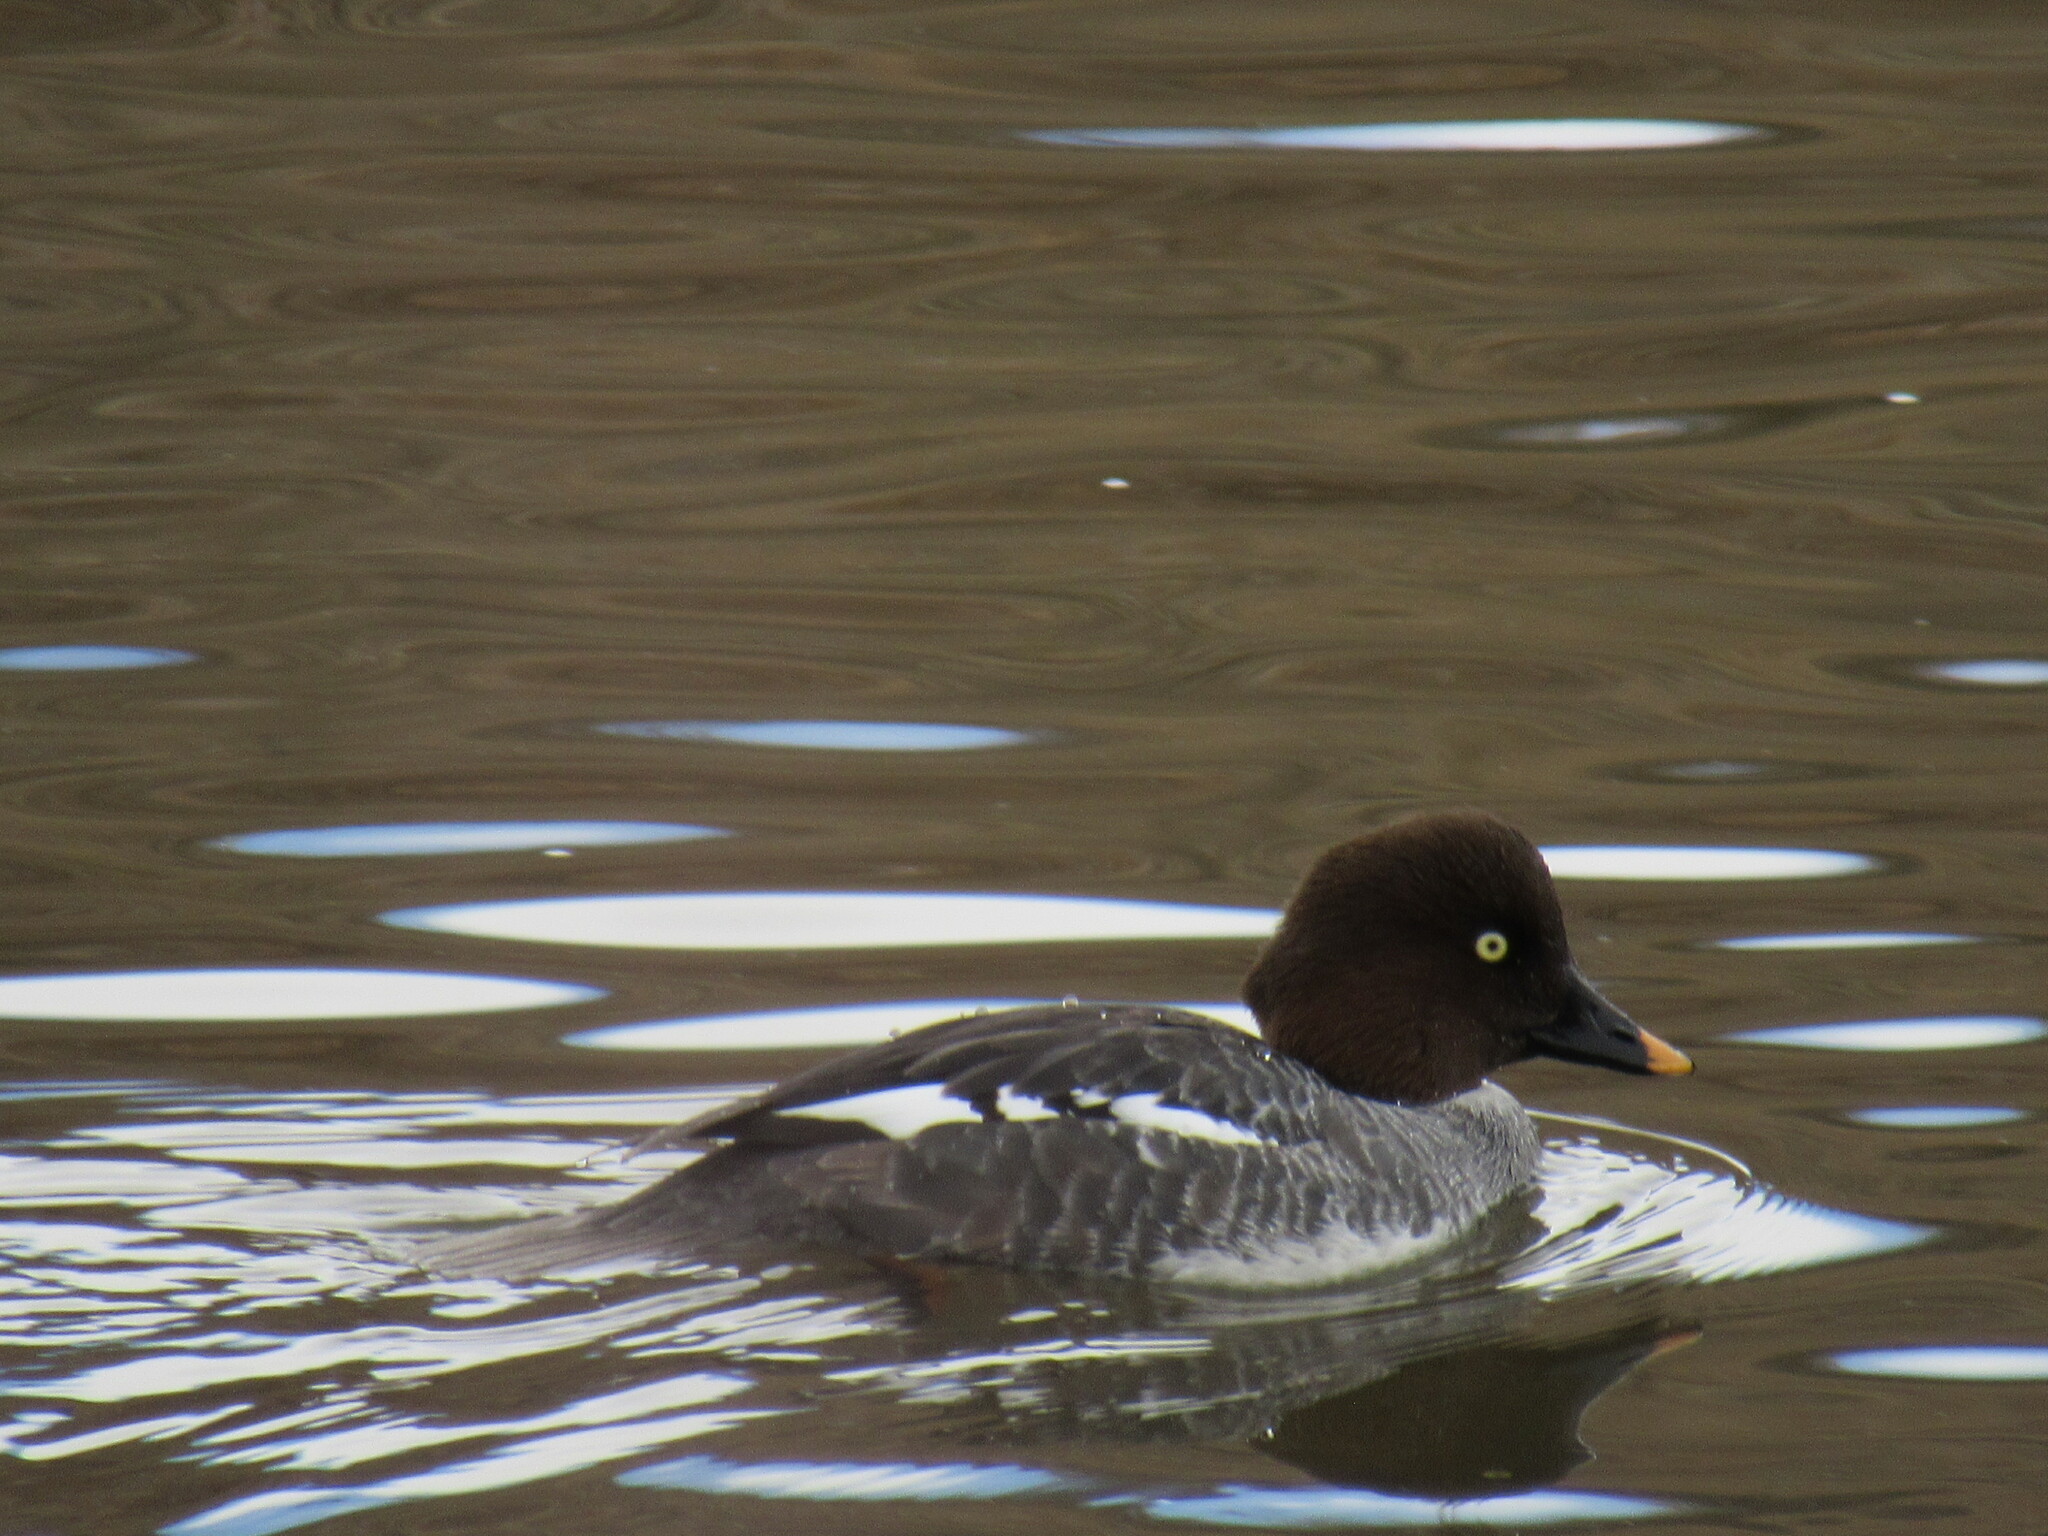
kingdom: Animalia
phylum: Chordata
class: Aves
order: Anseriformes
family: Anatidae
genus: Bucephala
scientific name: Bucephala clangula
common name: Common goldeneye
